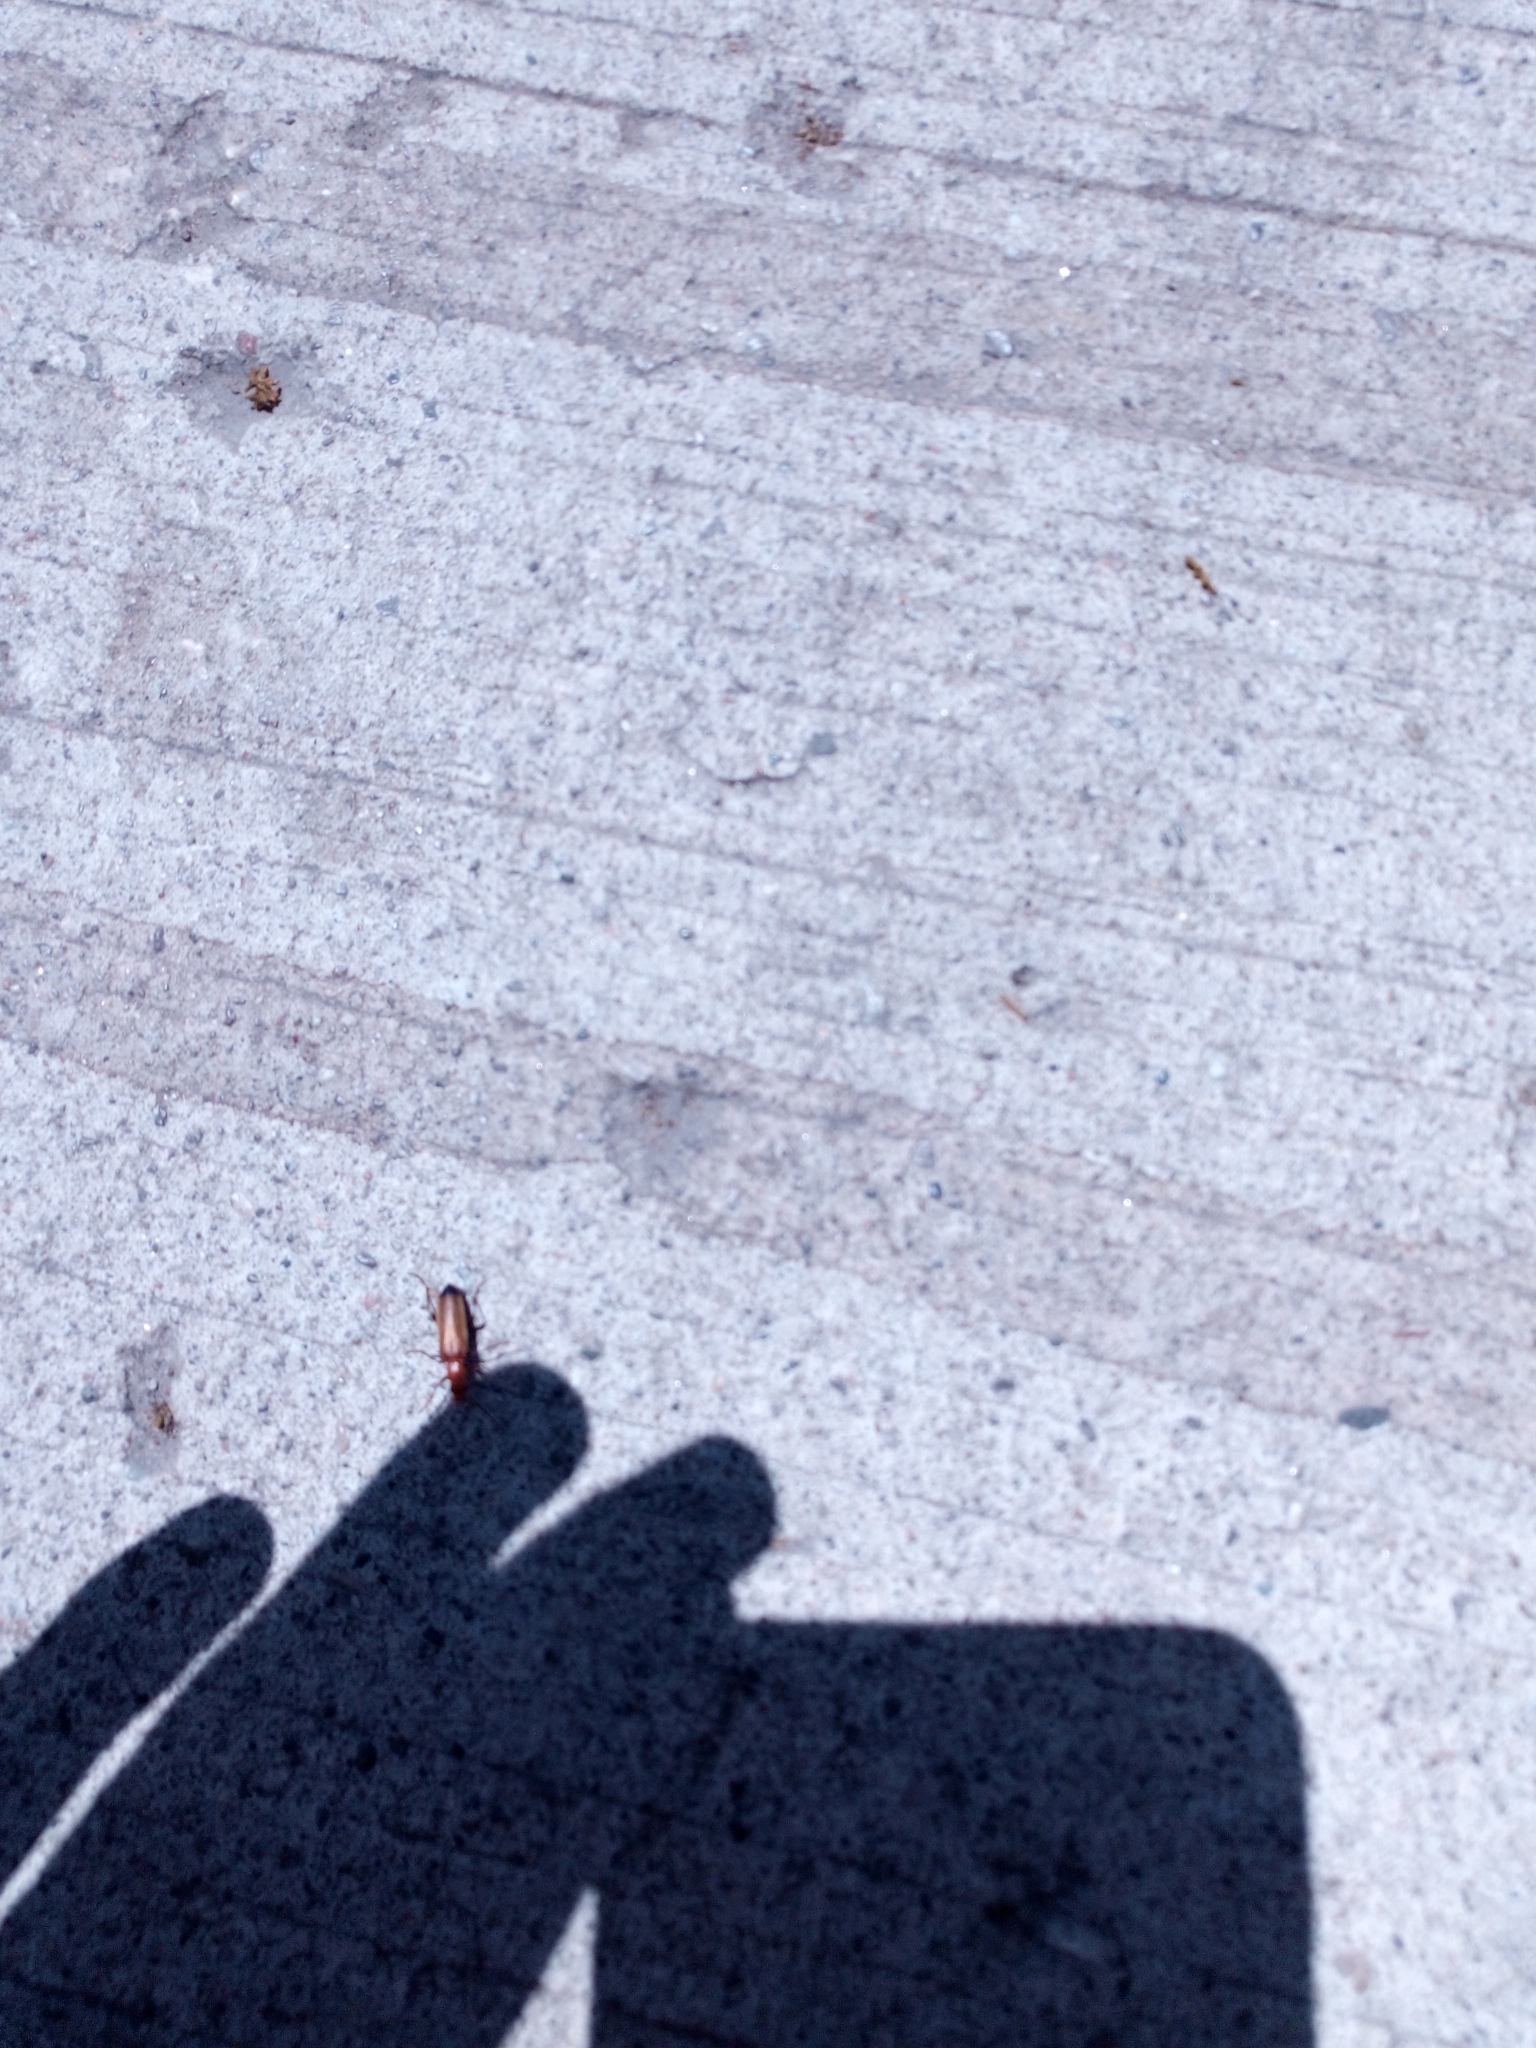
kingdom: Animalia
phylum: Arthropoda
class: Insecta
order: Coleoptera
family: Oedemeridae
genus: Nacerdes
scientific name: Nacerdes melanura
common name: Wharf borer
